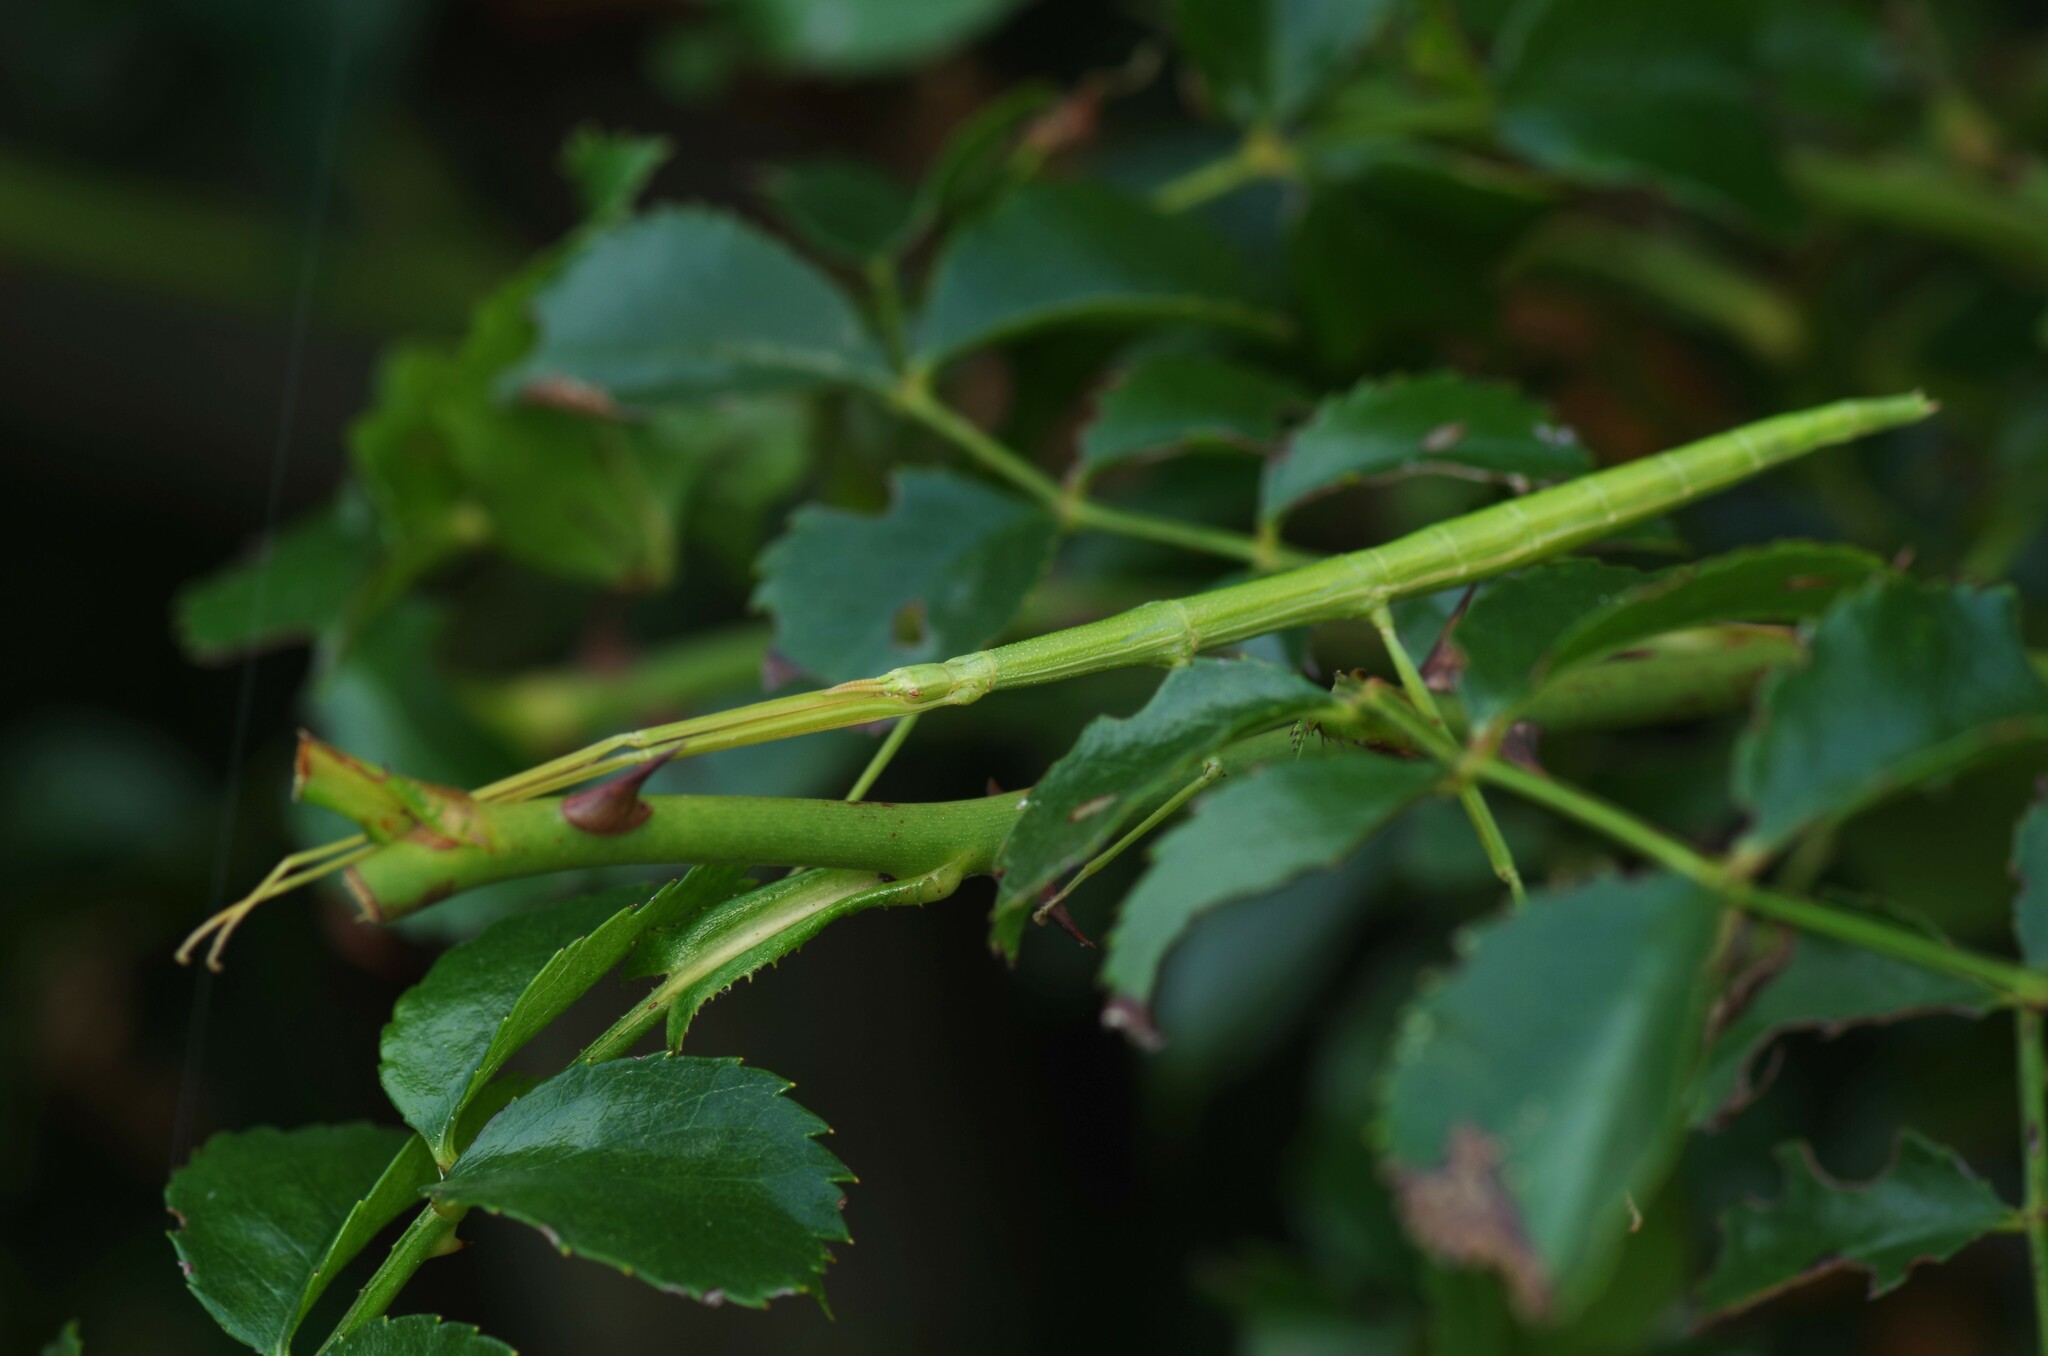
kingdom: Animalia
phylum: Arthropoda
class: Insecta
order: Phasmida
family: Bacillidae
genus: Clonopsis
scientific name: Clonopsis gallica
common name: French stick insect
